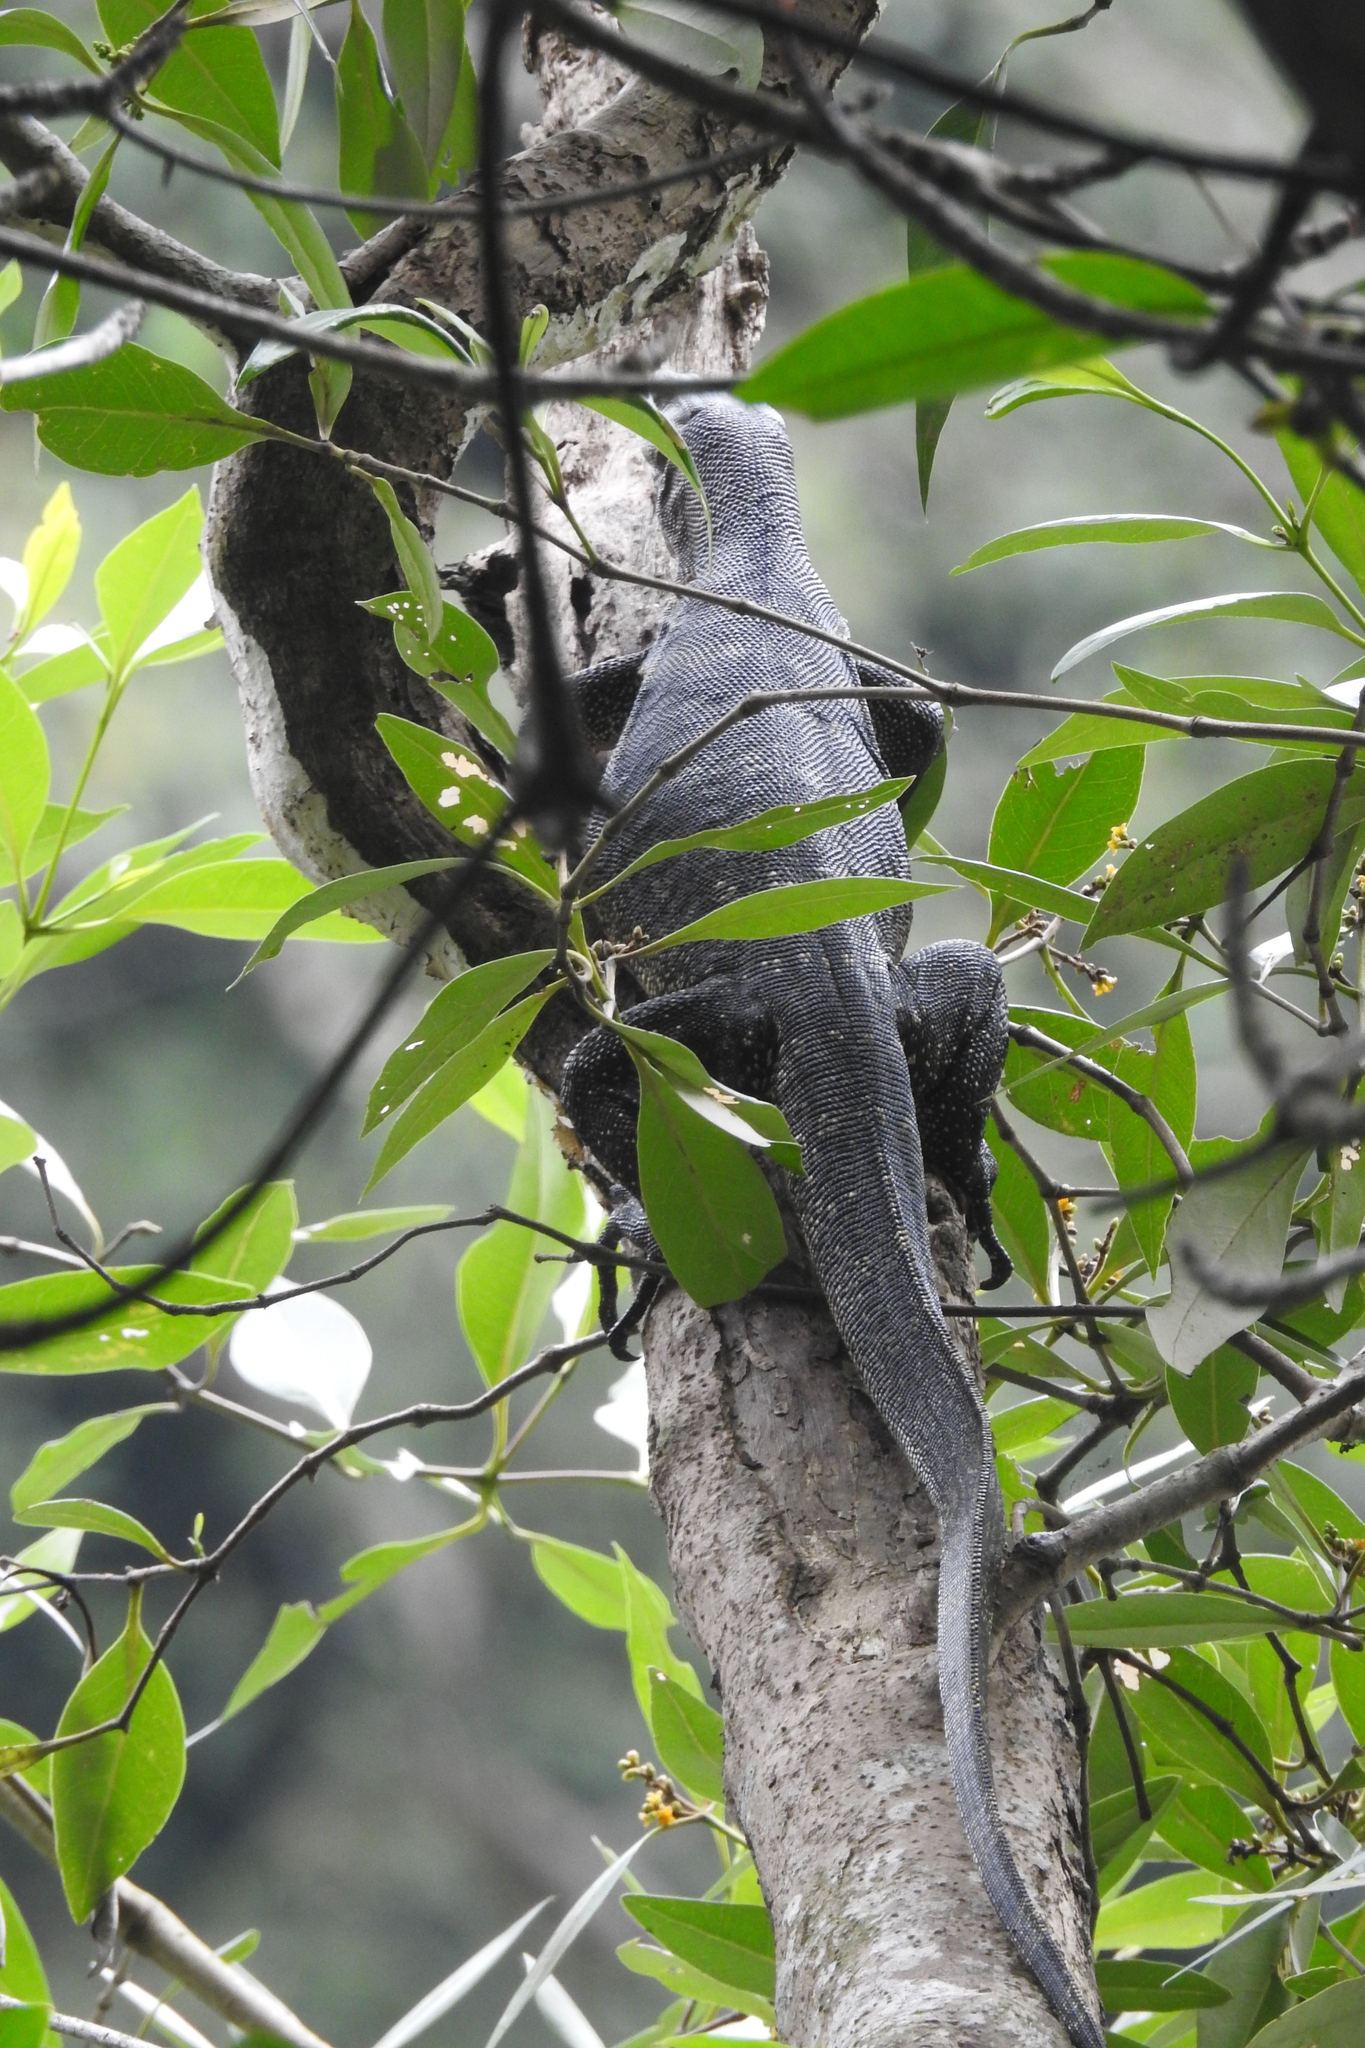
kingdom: Animalia
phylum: Chordata
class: Squamata
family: Varanidae
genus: Varanus
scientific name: Varanus salvator
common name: Common water monitor
